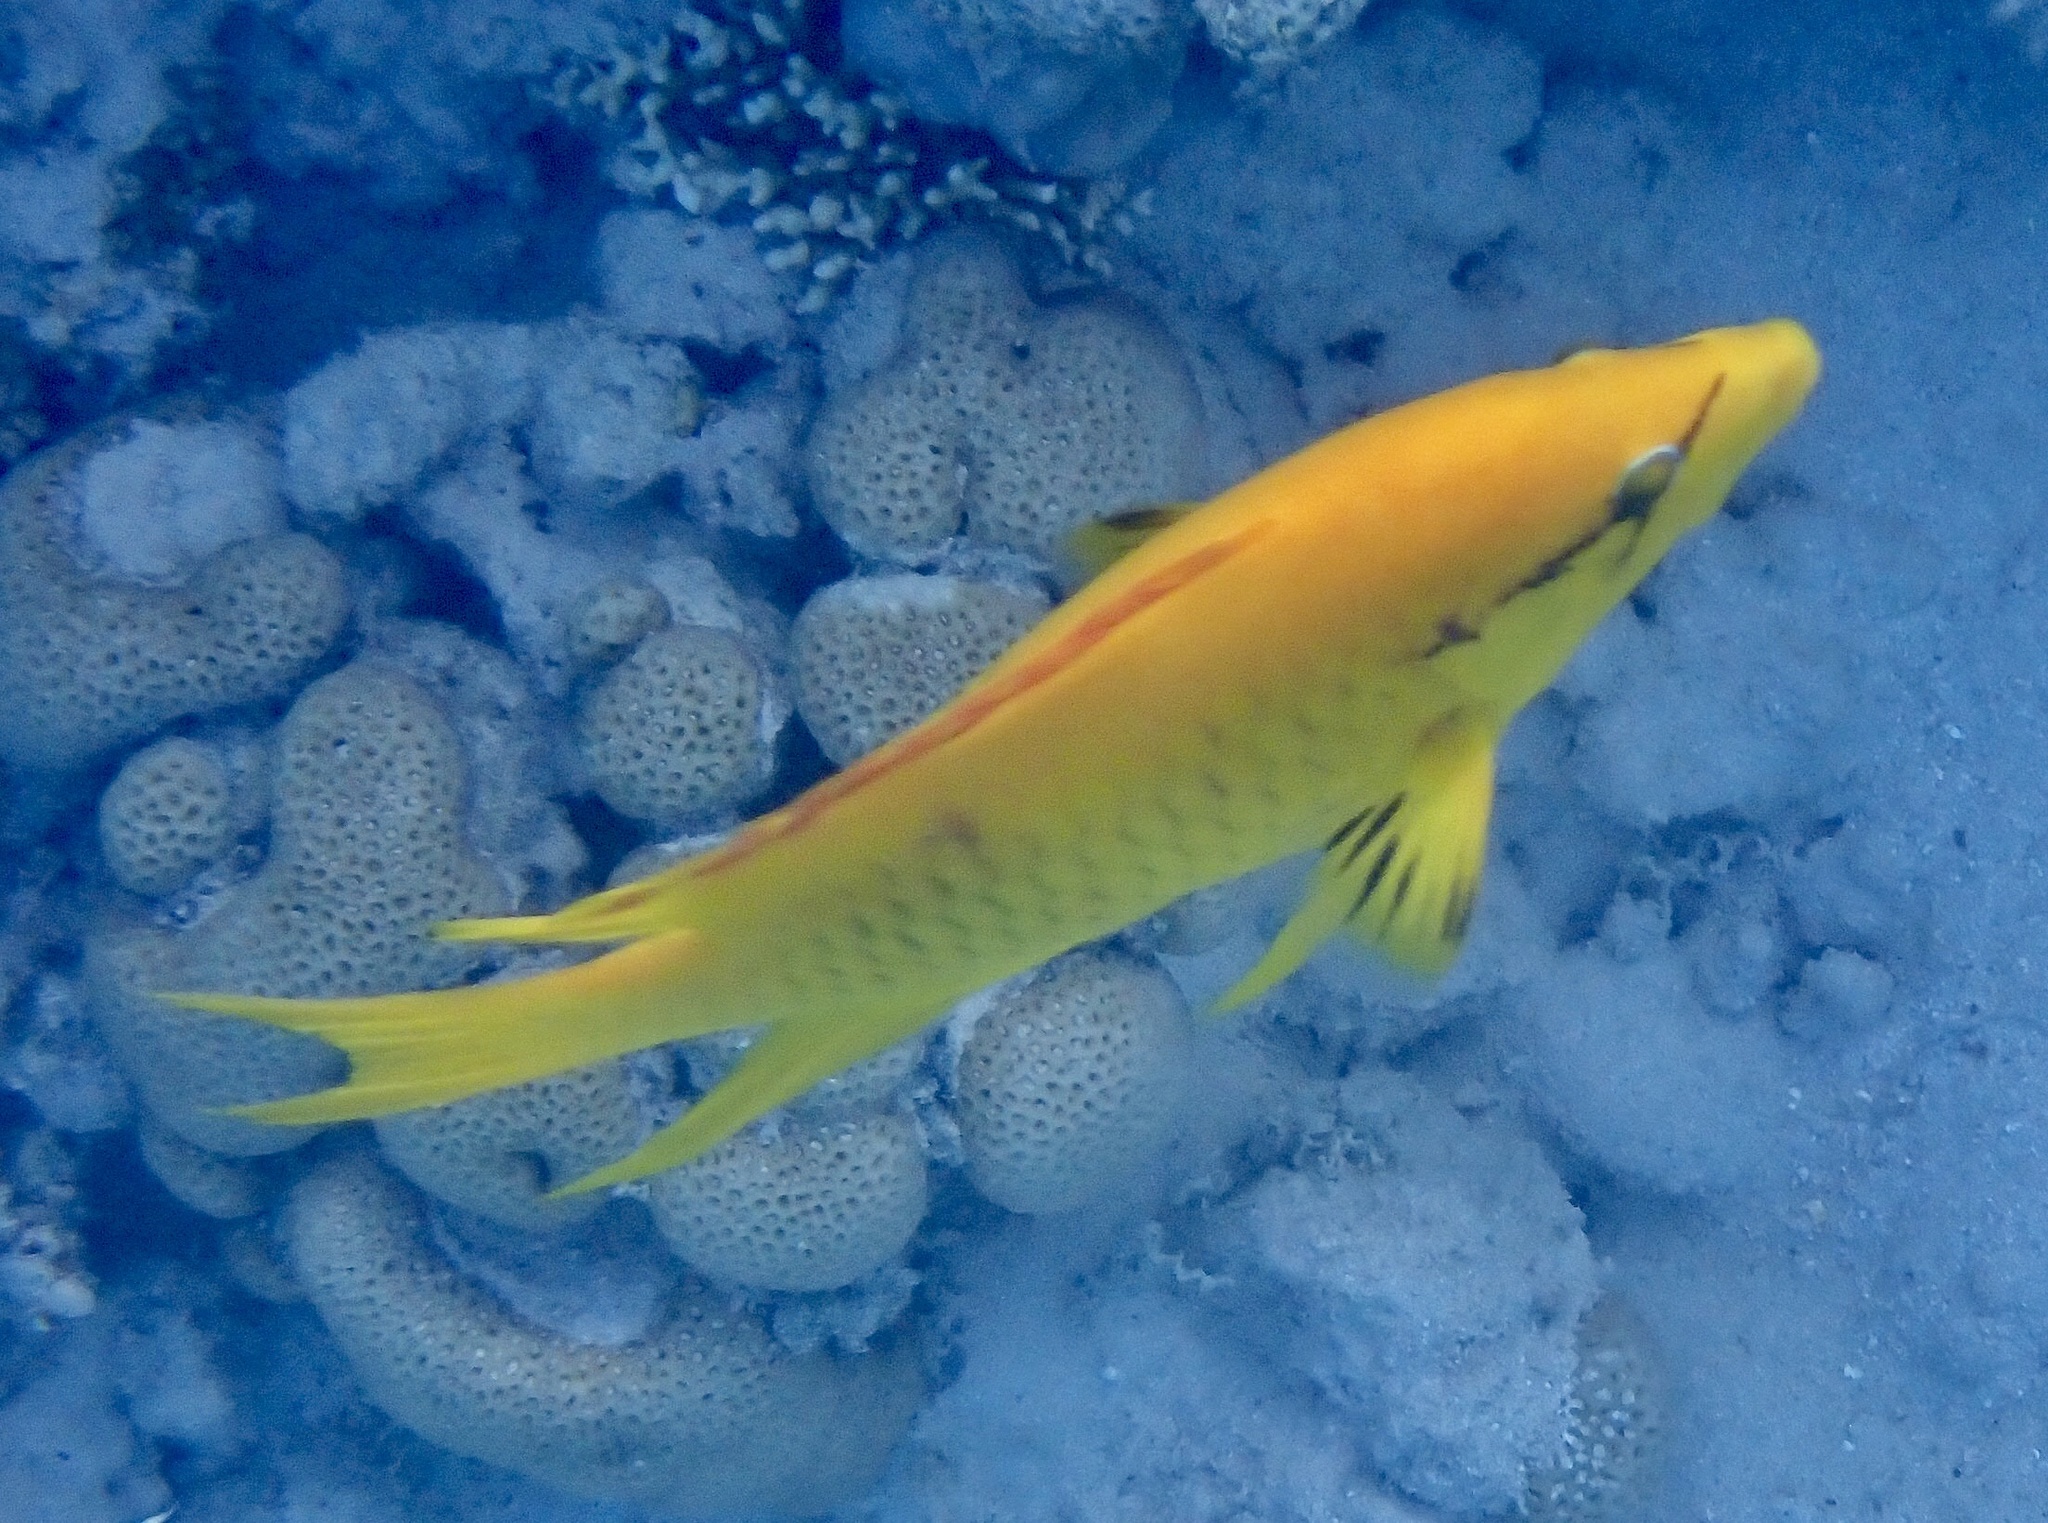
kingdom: Animalia
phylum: Chordata
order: Perciformes
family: Labridae
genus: Epibulus
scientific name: Epibulus insidiator
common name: Slingjaw wrasse
